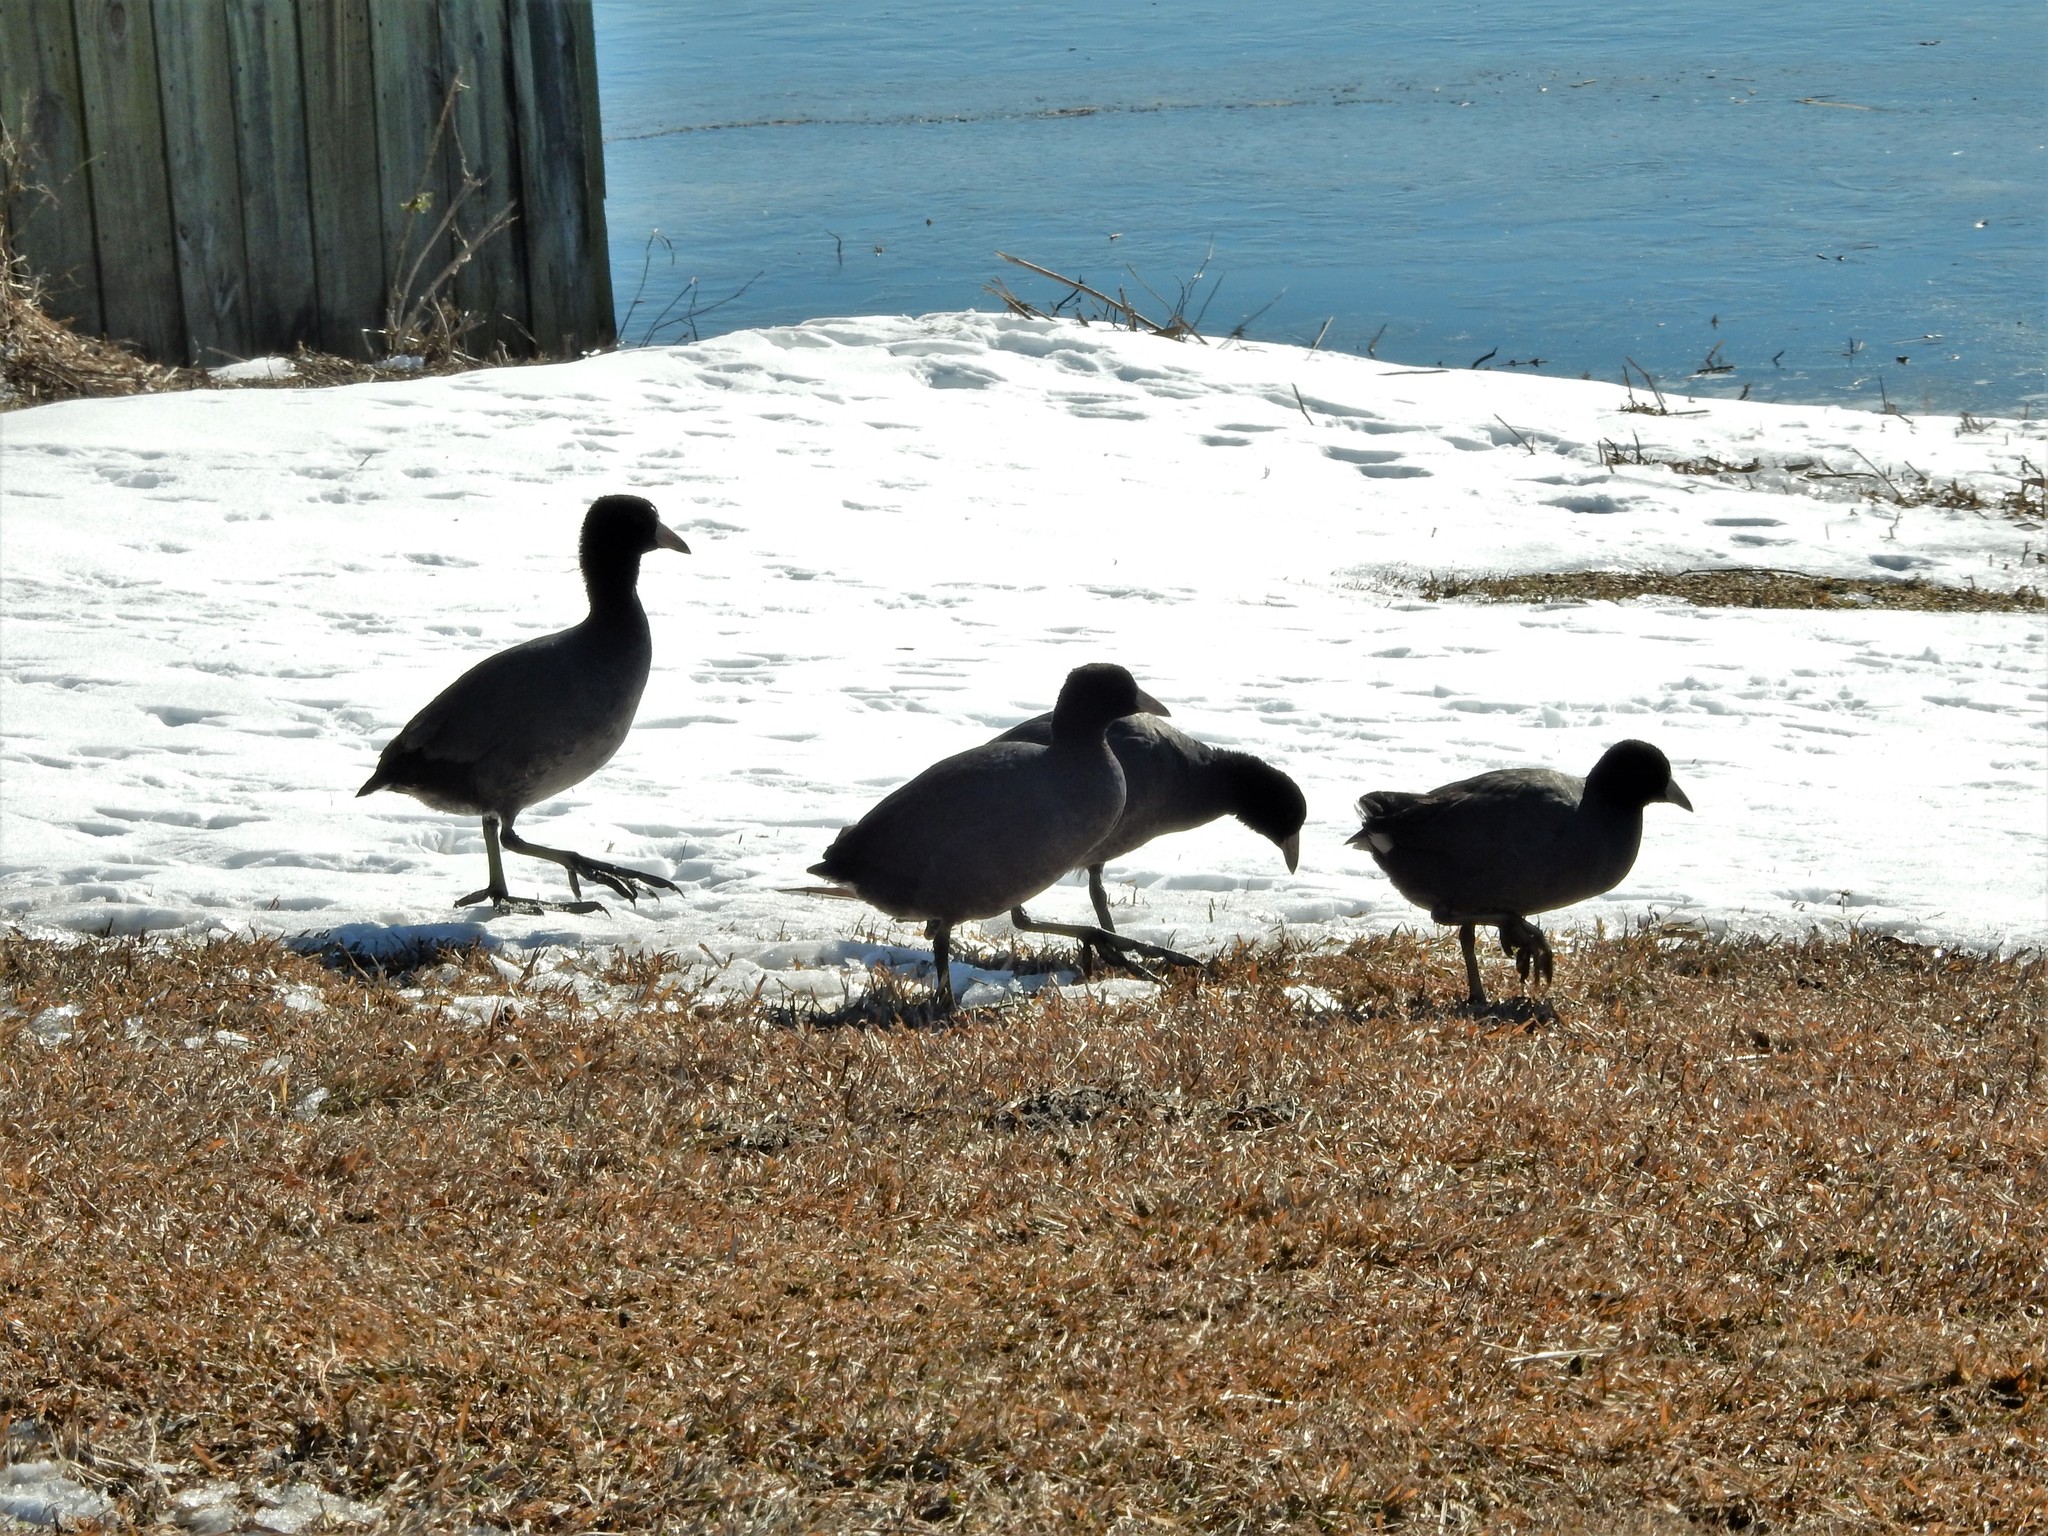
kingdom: Animalia
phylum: Chordata
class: Aves
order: Gruiformes
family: Rallidae
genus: Fulica
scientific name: Fulica americana
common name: American coot
